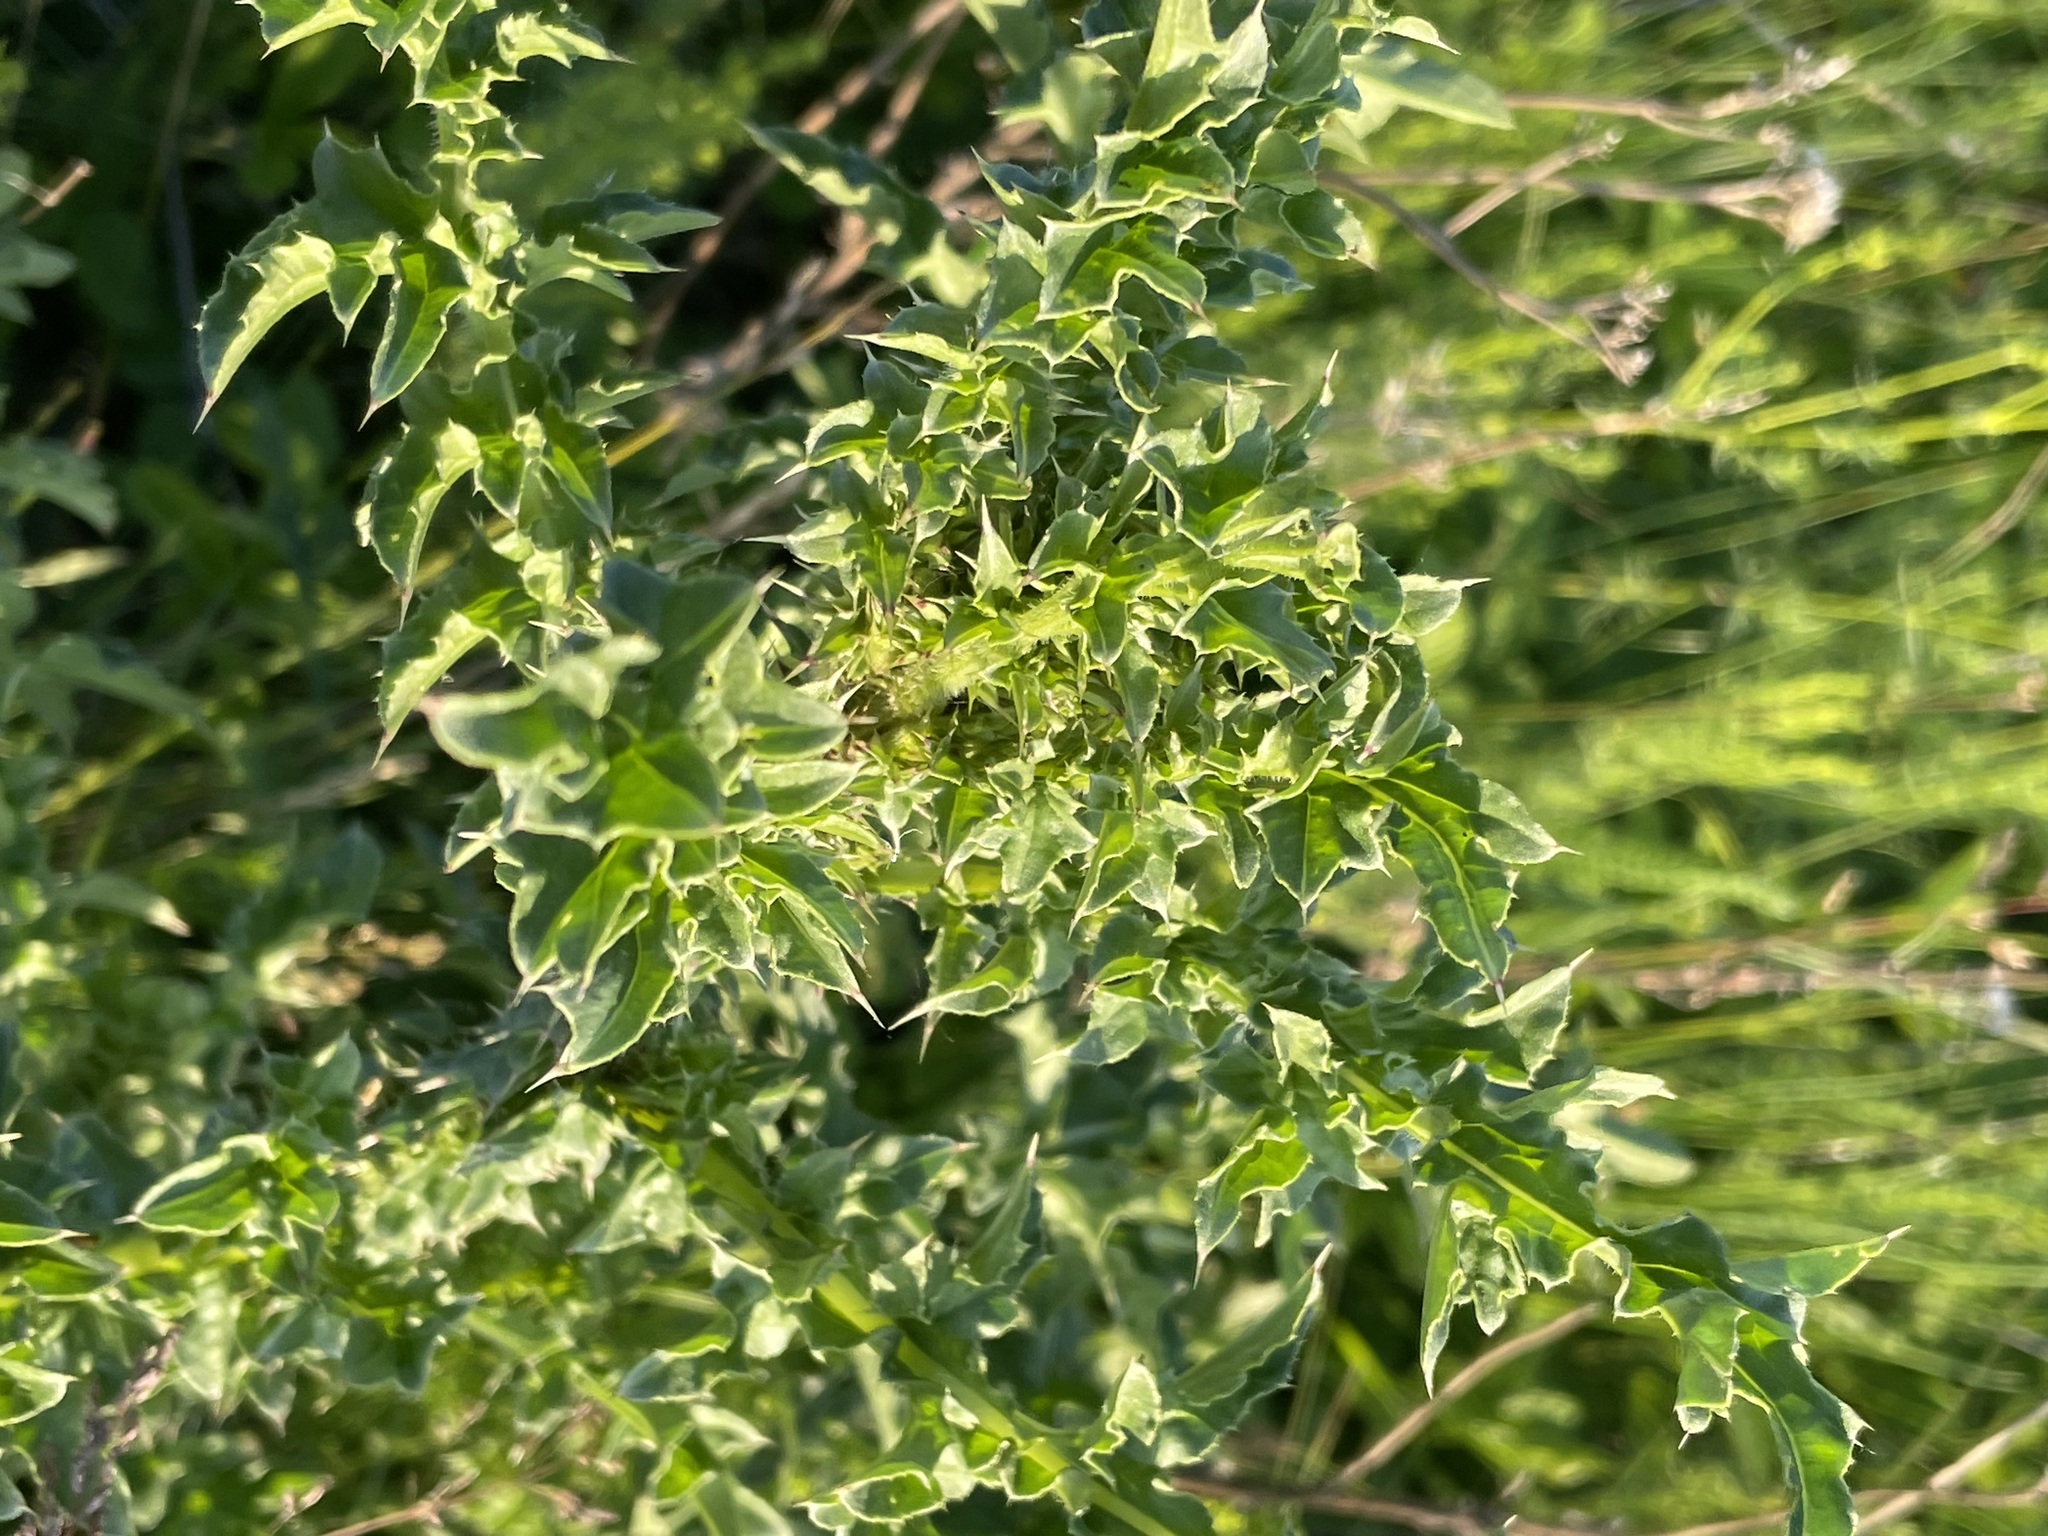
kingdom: Plantae
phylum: Tracheophyta
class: Magnoliopsida
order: Asterales
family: Asteraceae
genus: Carduus
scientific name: Carduus acanthoides
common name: Plumeless thistle
